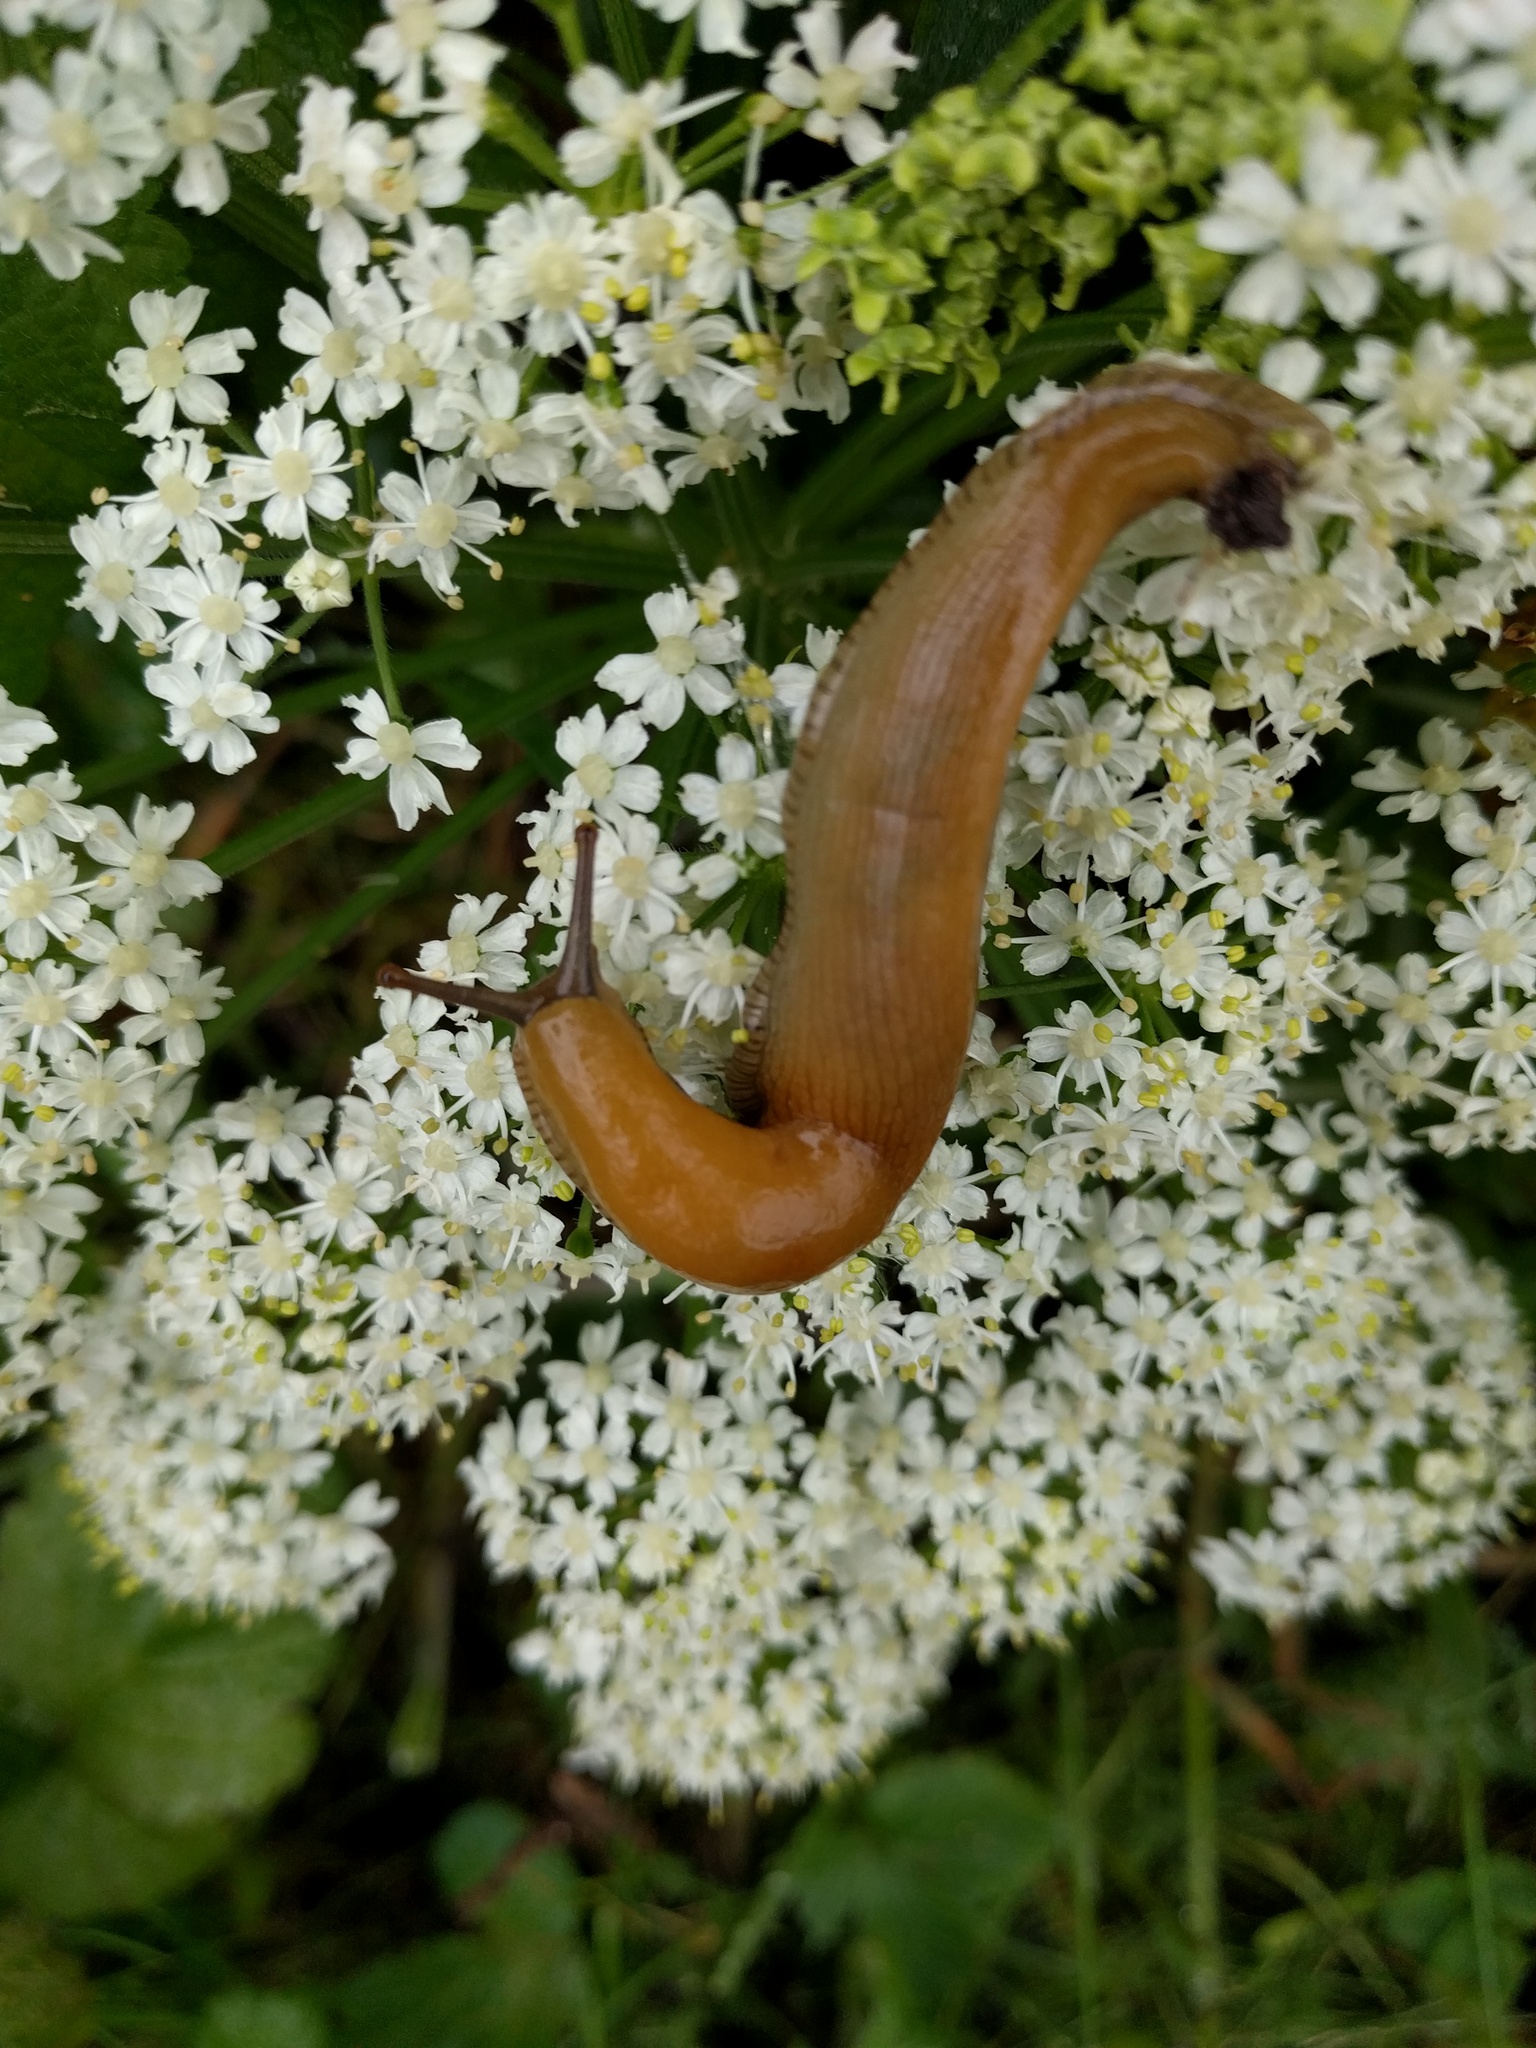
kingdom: Animalia
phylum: Mollusca
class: Gastropoda
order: Stylommatophora
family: Ariolimacidae
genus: Ariolimax
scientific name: Ariolimax brachyphallus
